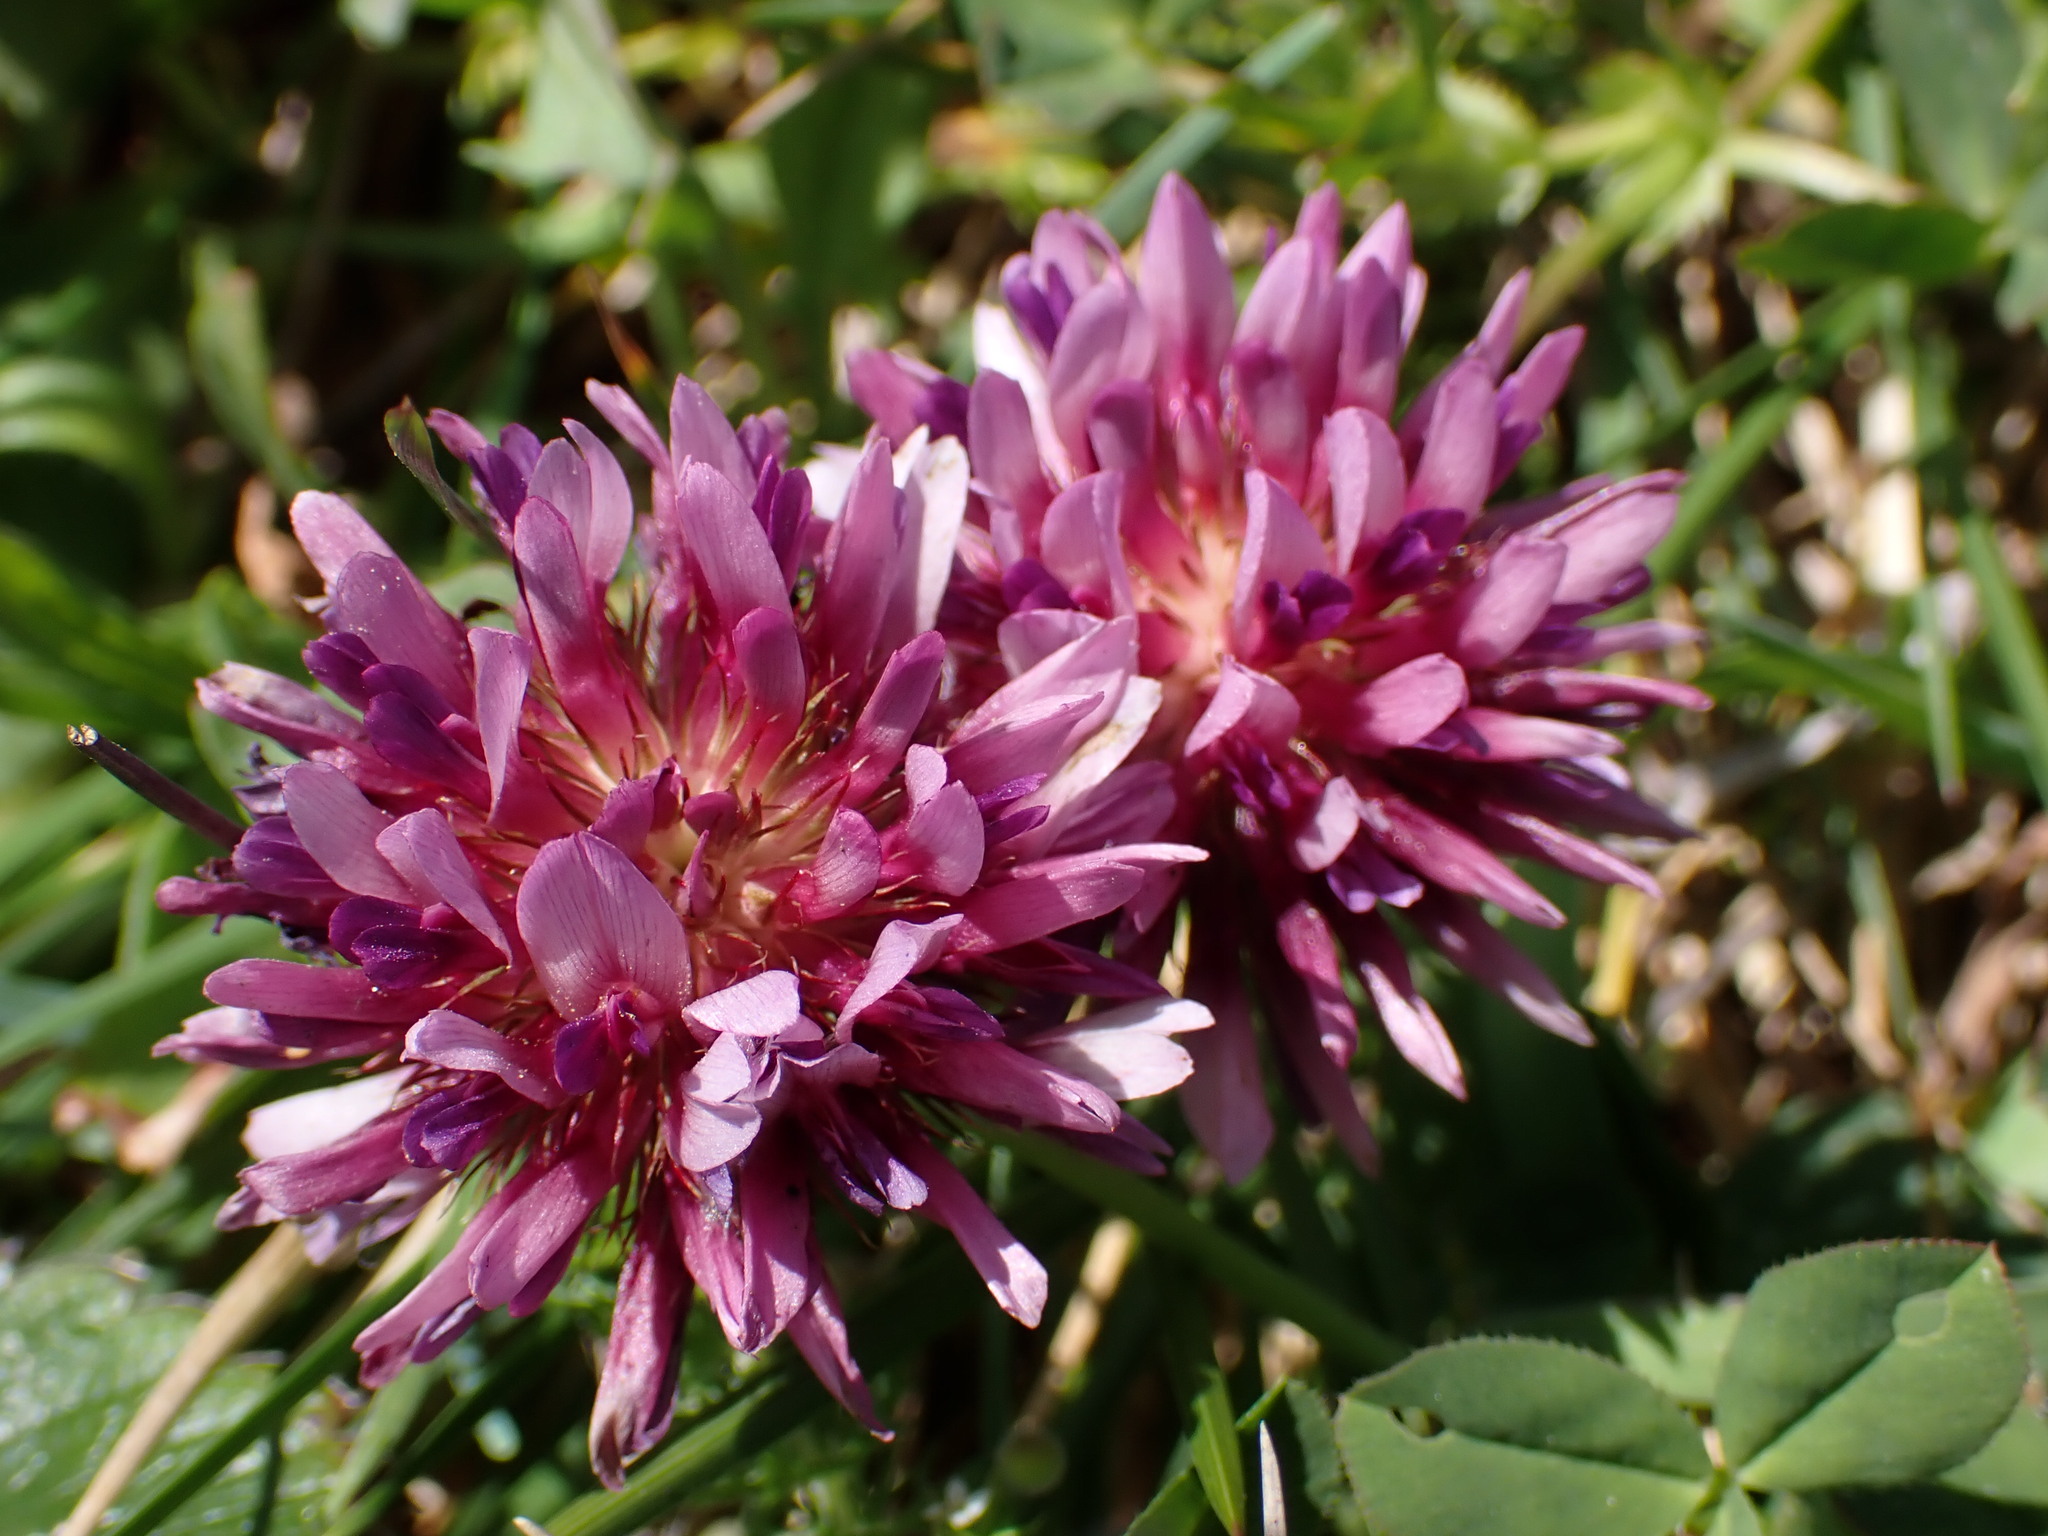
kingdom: Plantae
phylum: Tracheophyta
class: Magnoliopsida
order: Fabales
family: Fabaceae
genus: Trifolium
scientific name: Trifolium wormskioldii
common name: Springbank clover
